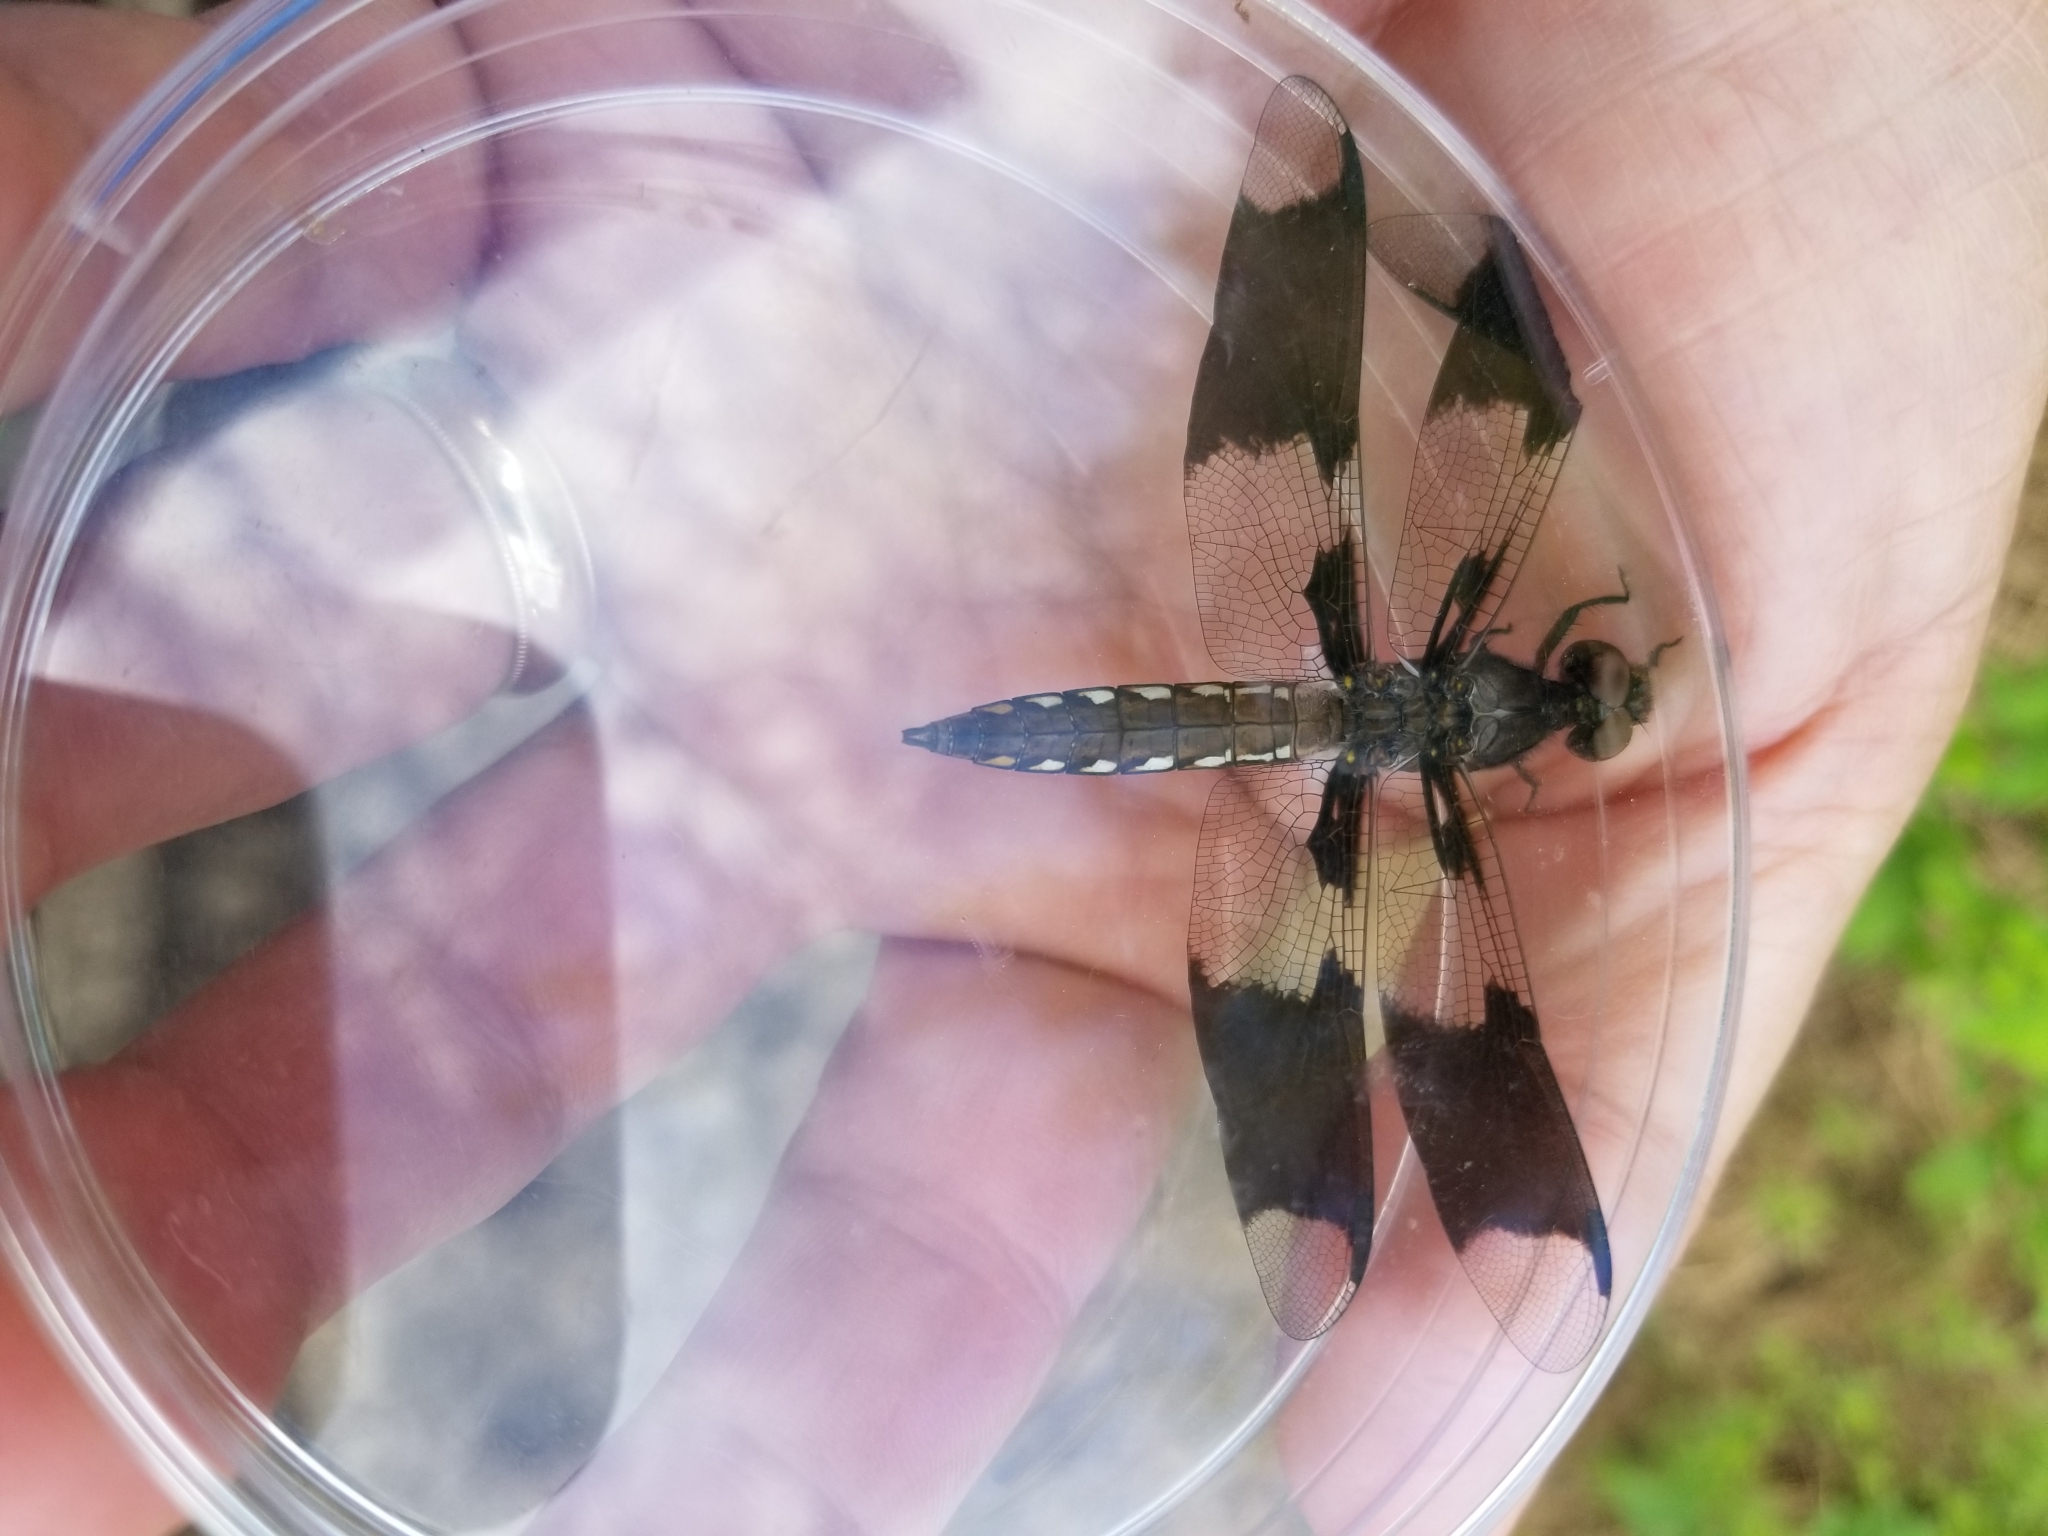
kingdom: Animalia
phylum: Arthropoda
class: Insecta
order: Odonata
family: Libellulidae
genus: Plathemis
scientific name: Plathemis lydia
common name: Common whitetail
